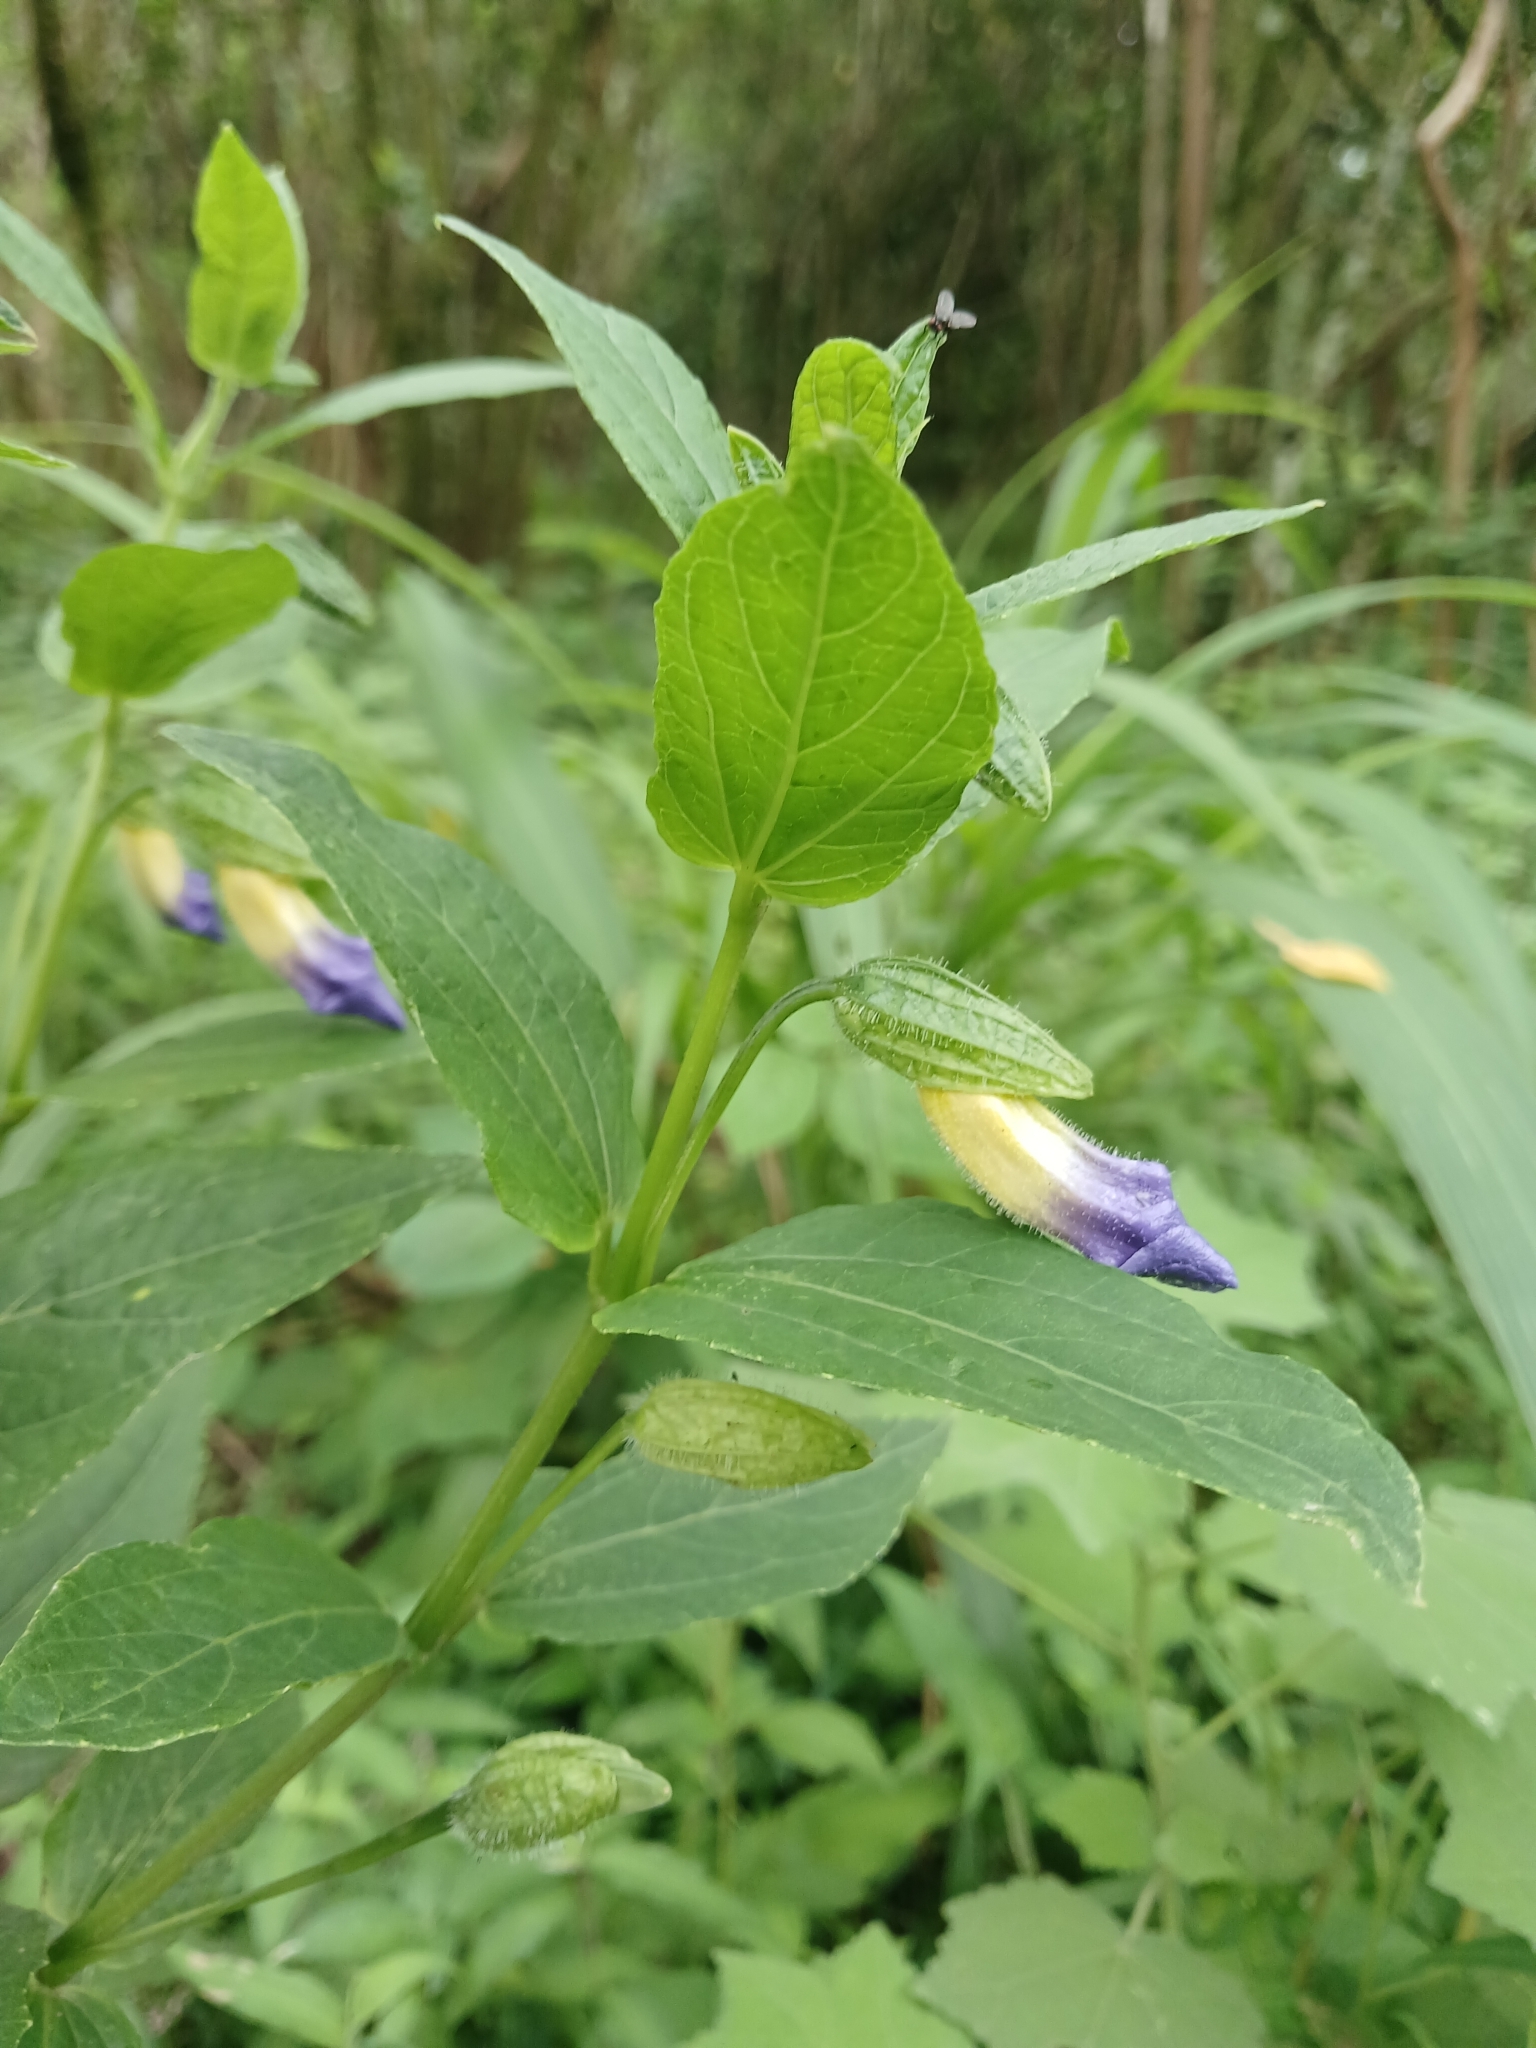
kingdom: Plantae
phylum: Tracheophyta
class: Magnoliopsida
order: Lamiales
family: Acanthaceae
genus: Thunbergia
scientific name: Thunbergia natalensis
